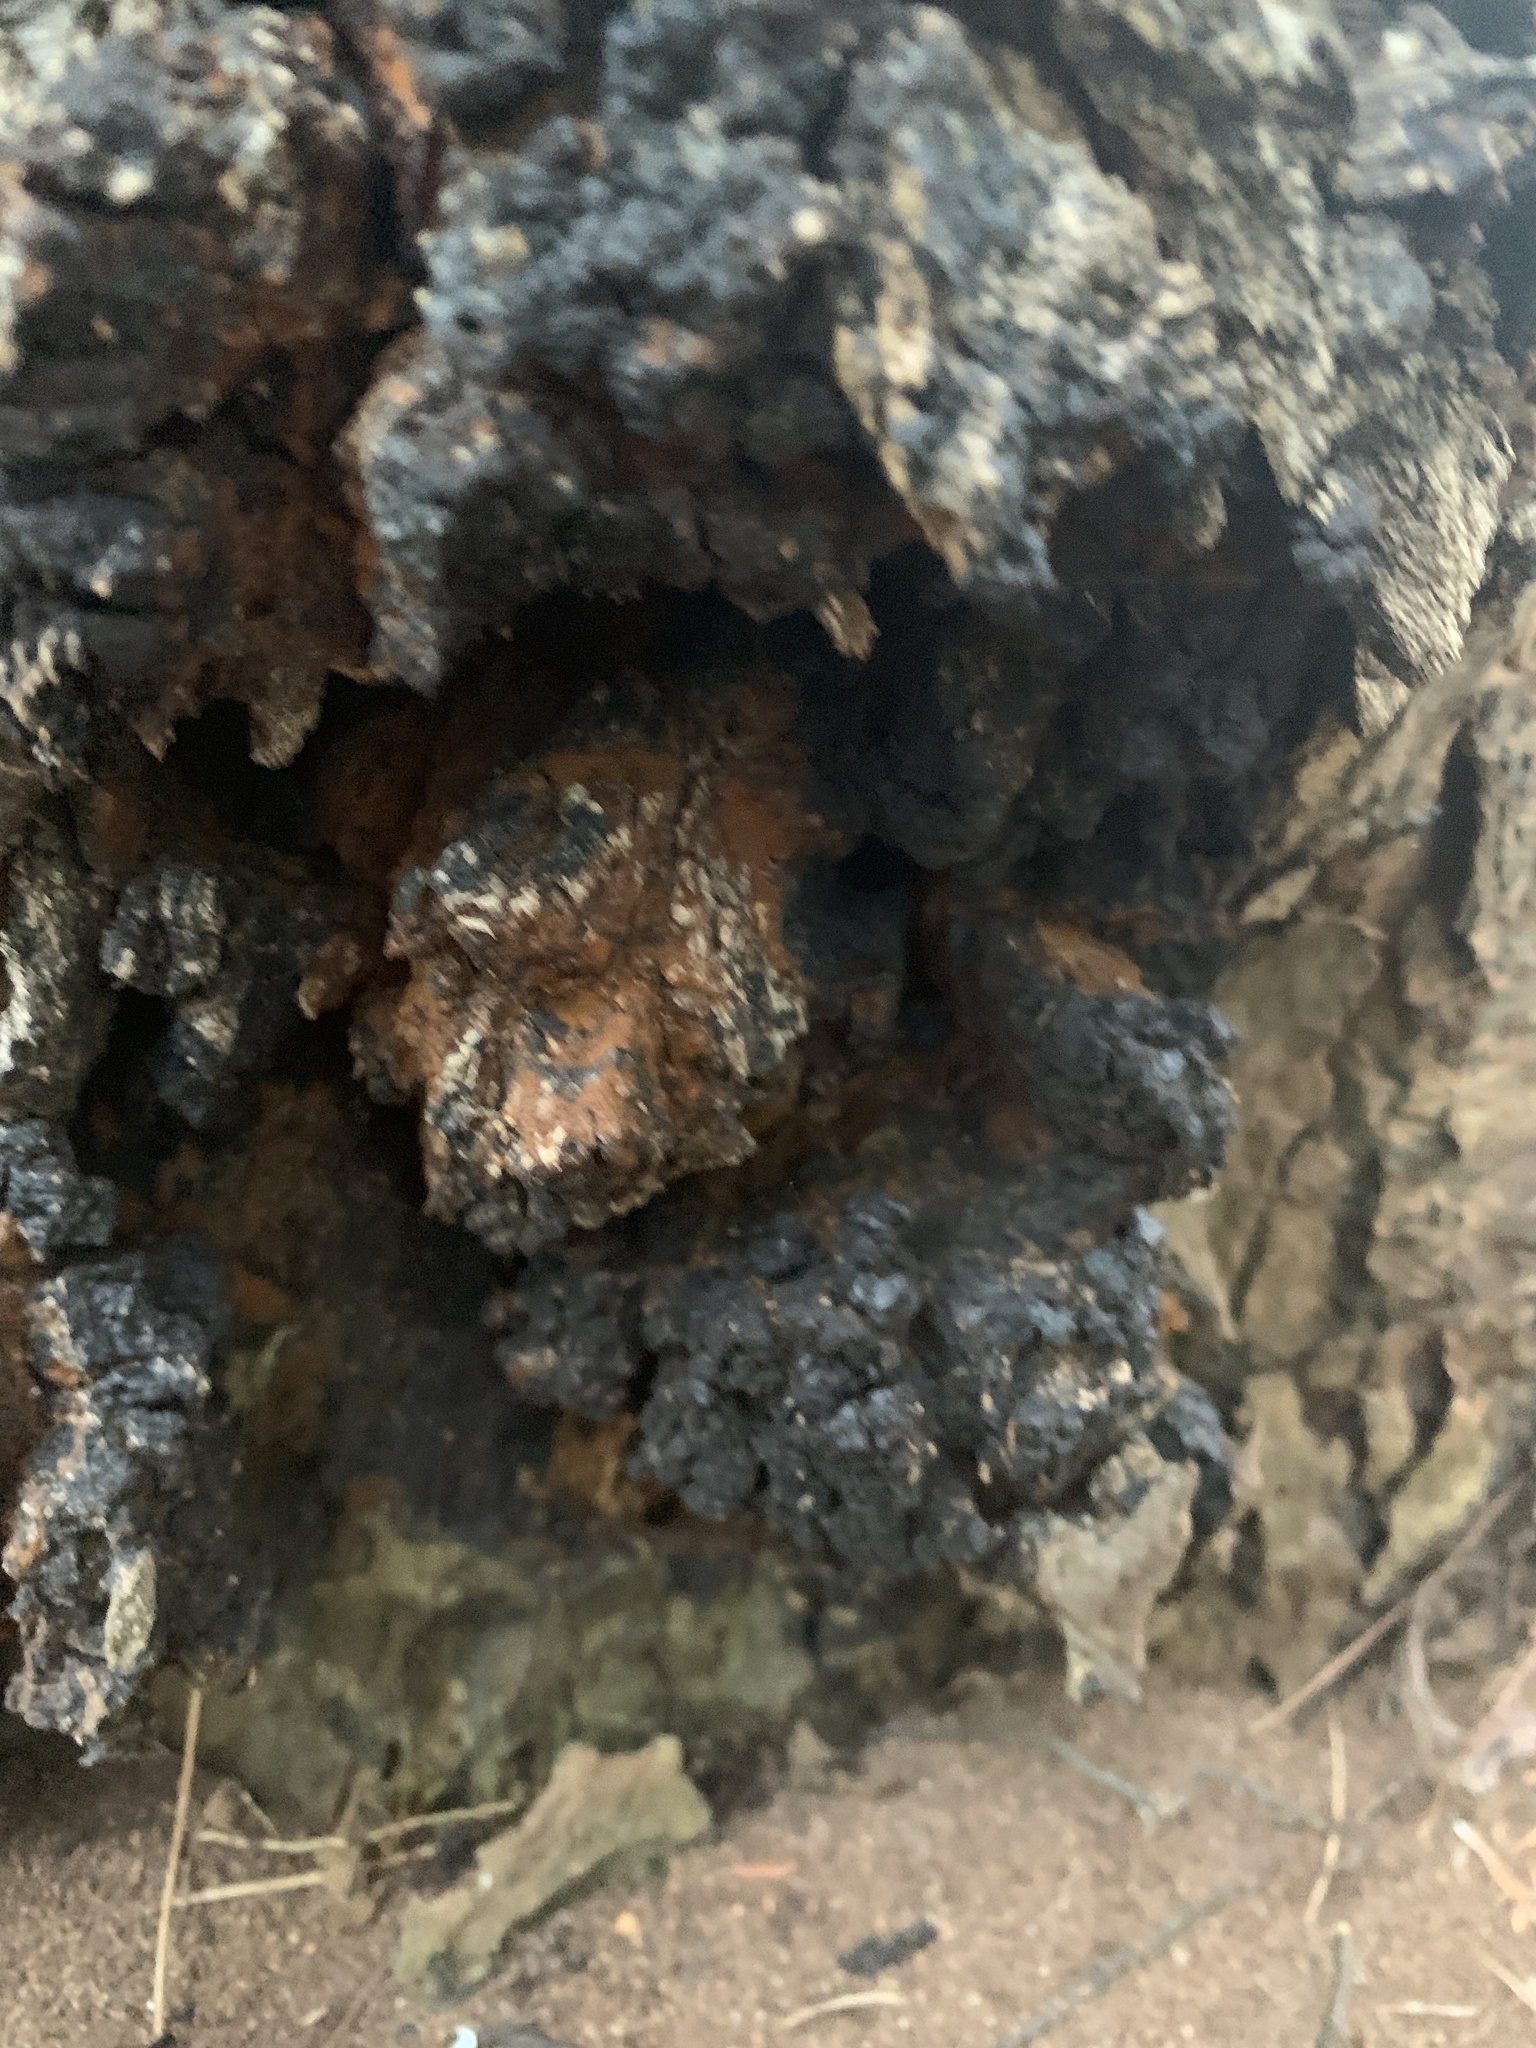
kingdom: Fungi
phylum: Basidiomycota
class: Agaricomycetes
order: Hymenochaetales
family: Hymenochaetaceae
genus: Inonotus
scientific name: Inonotus obliquus
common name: Chaga
